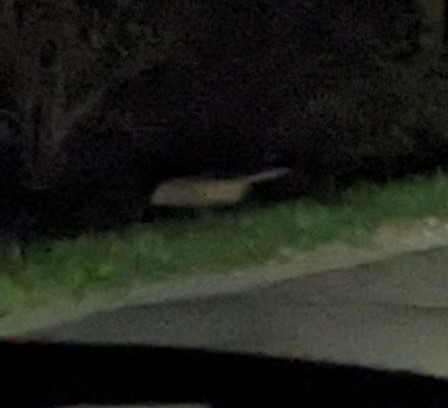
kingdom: Animalia
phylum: Chordata
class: Mammalia
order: Didelphimorphia
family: Didelphidae
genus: Didelphis
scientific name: Didelphis virginiana
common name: Virginia opossum
